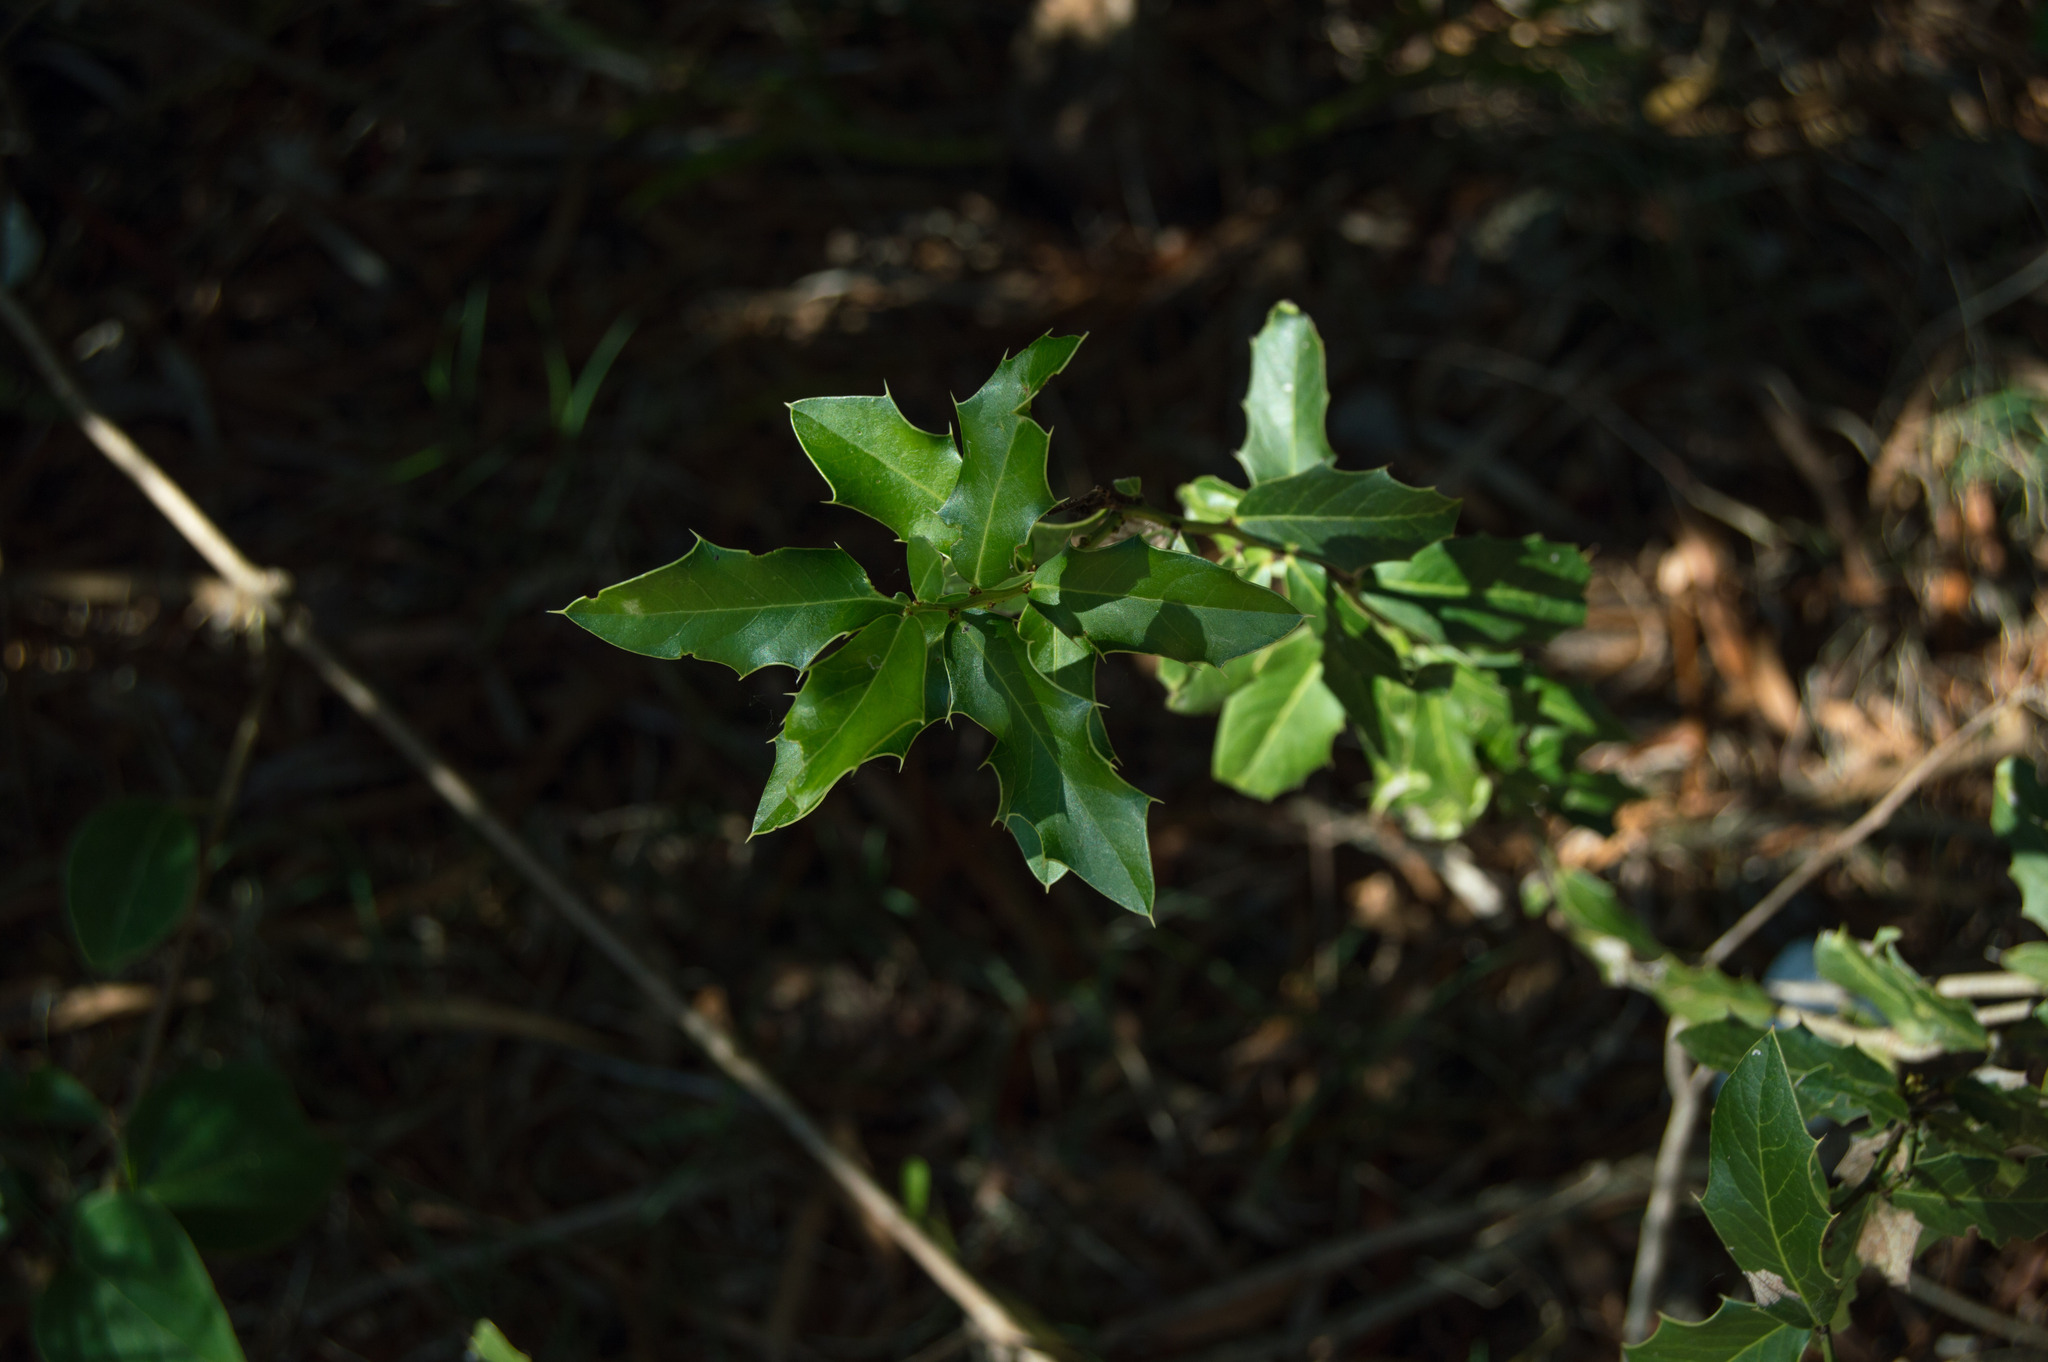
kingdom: Plantae
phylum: Tracheophyta
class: Magnoliopsida
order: Celastrales
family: Celastraceae
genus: Monteverdia
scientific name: Monteverdia
